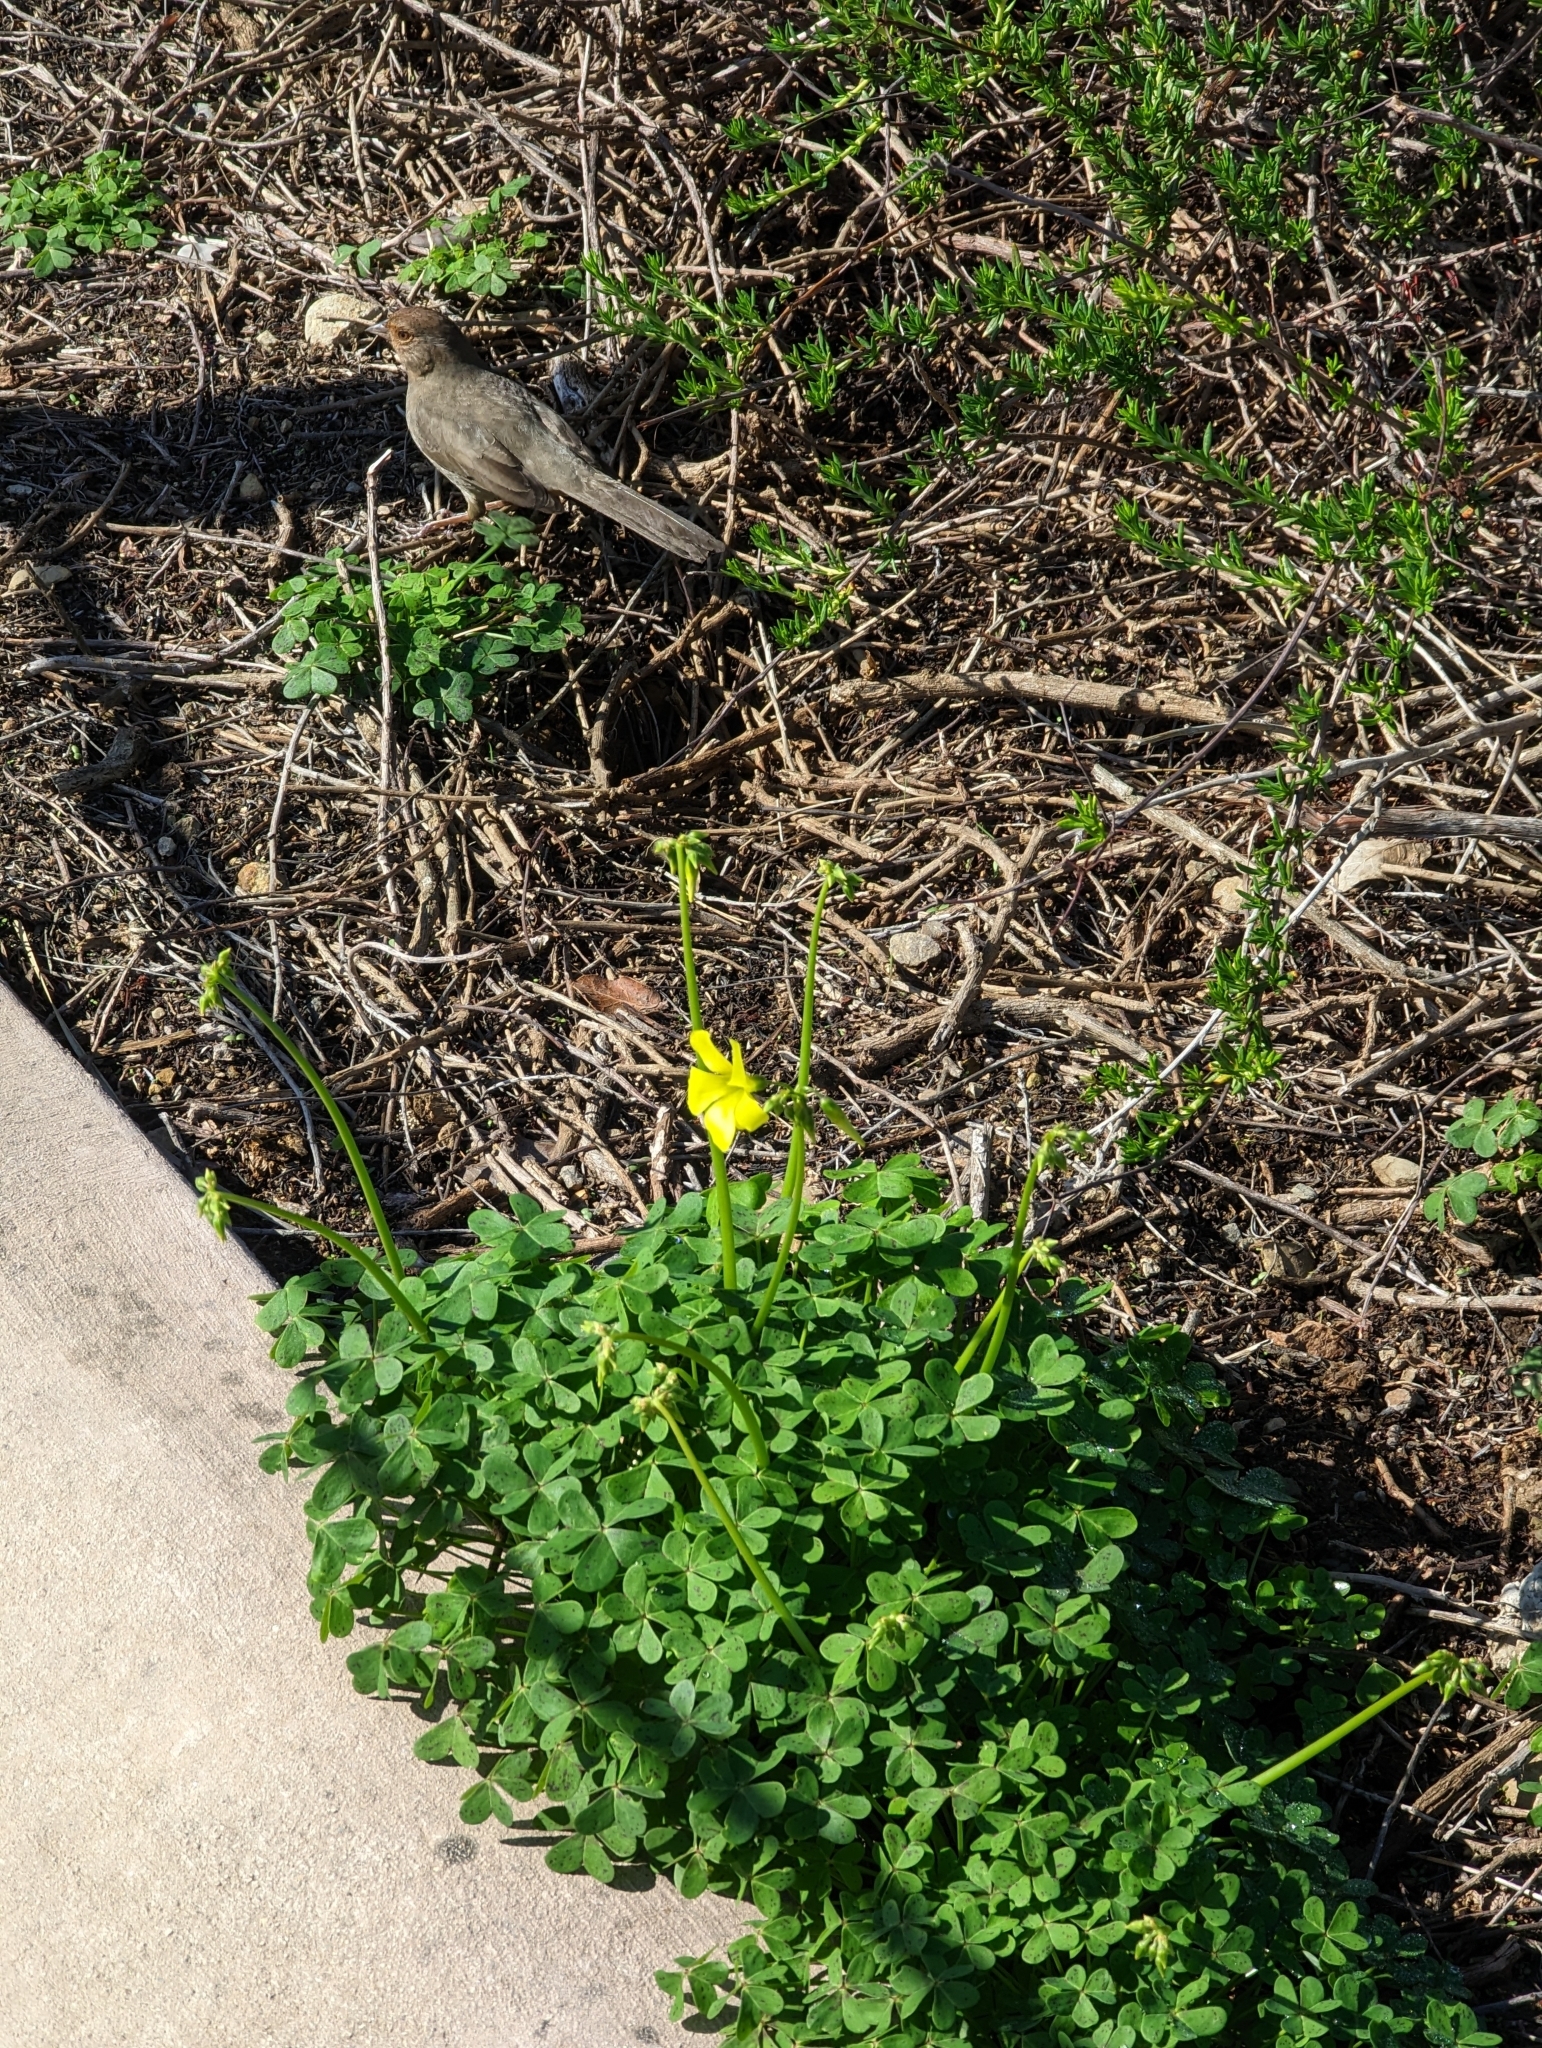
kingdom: Animalia
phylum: Chordata
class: Aves
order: Passeriformes
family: Passerellidae
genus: Melozone
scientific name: Melozone crissalis
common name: California towhee
